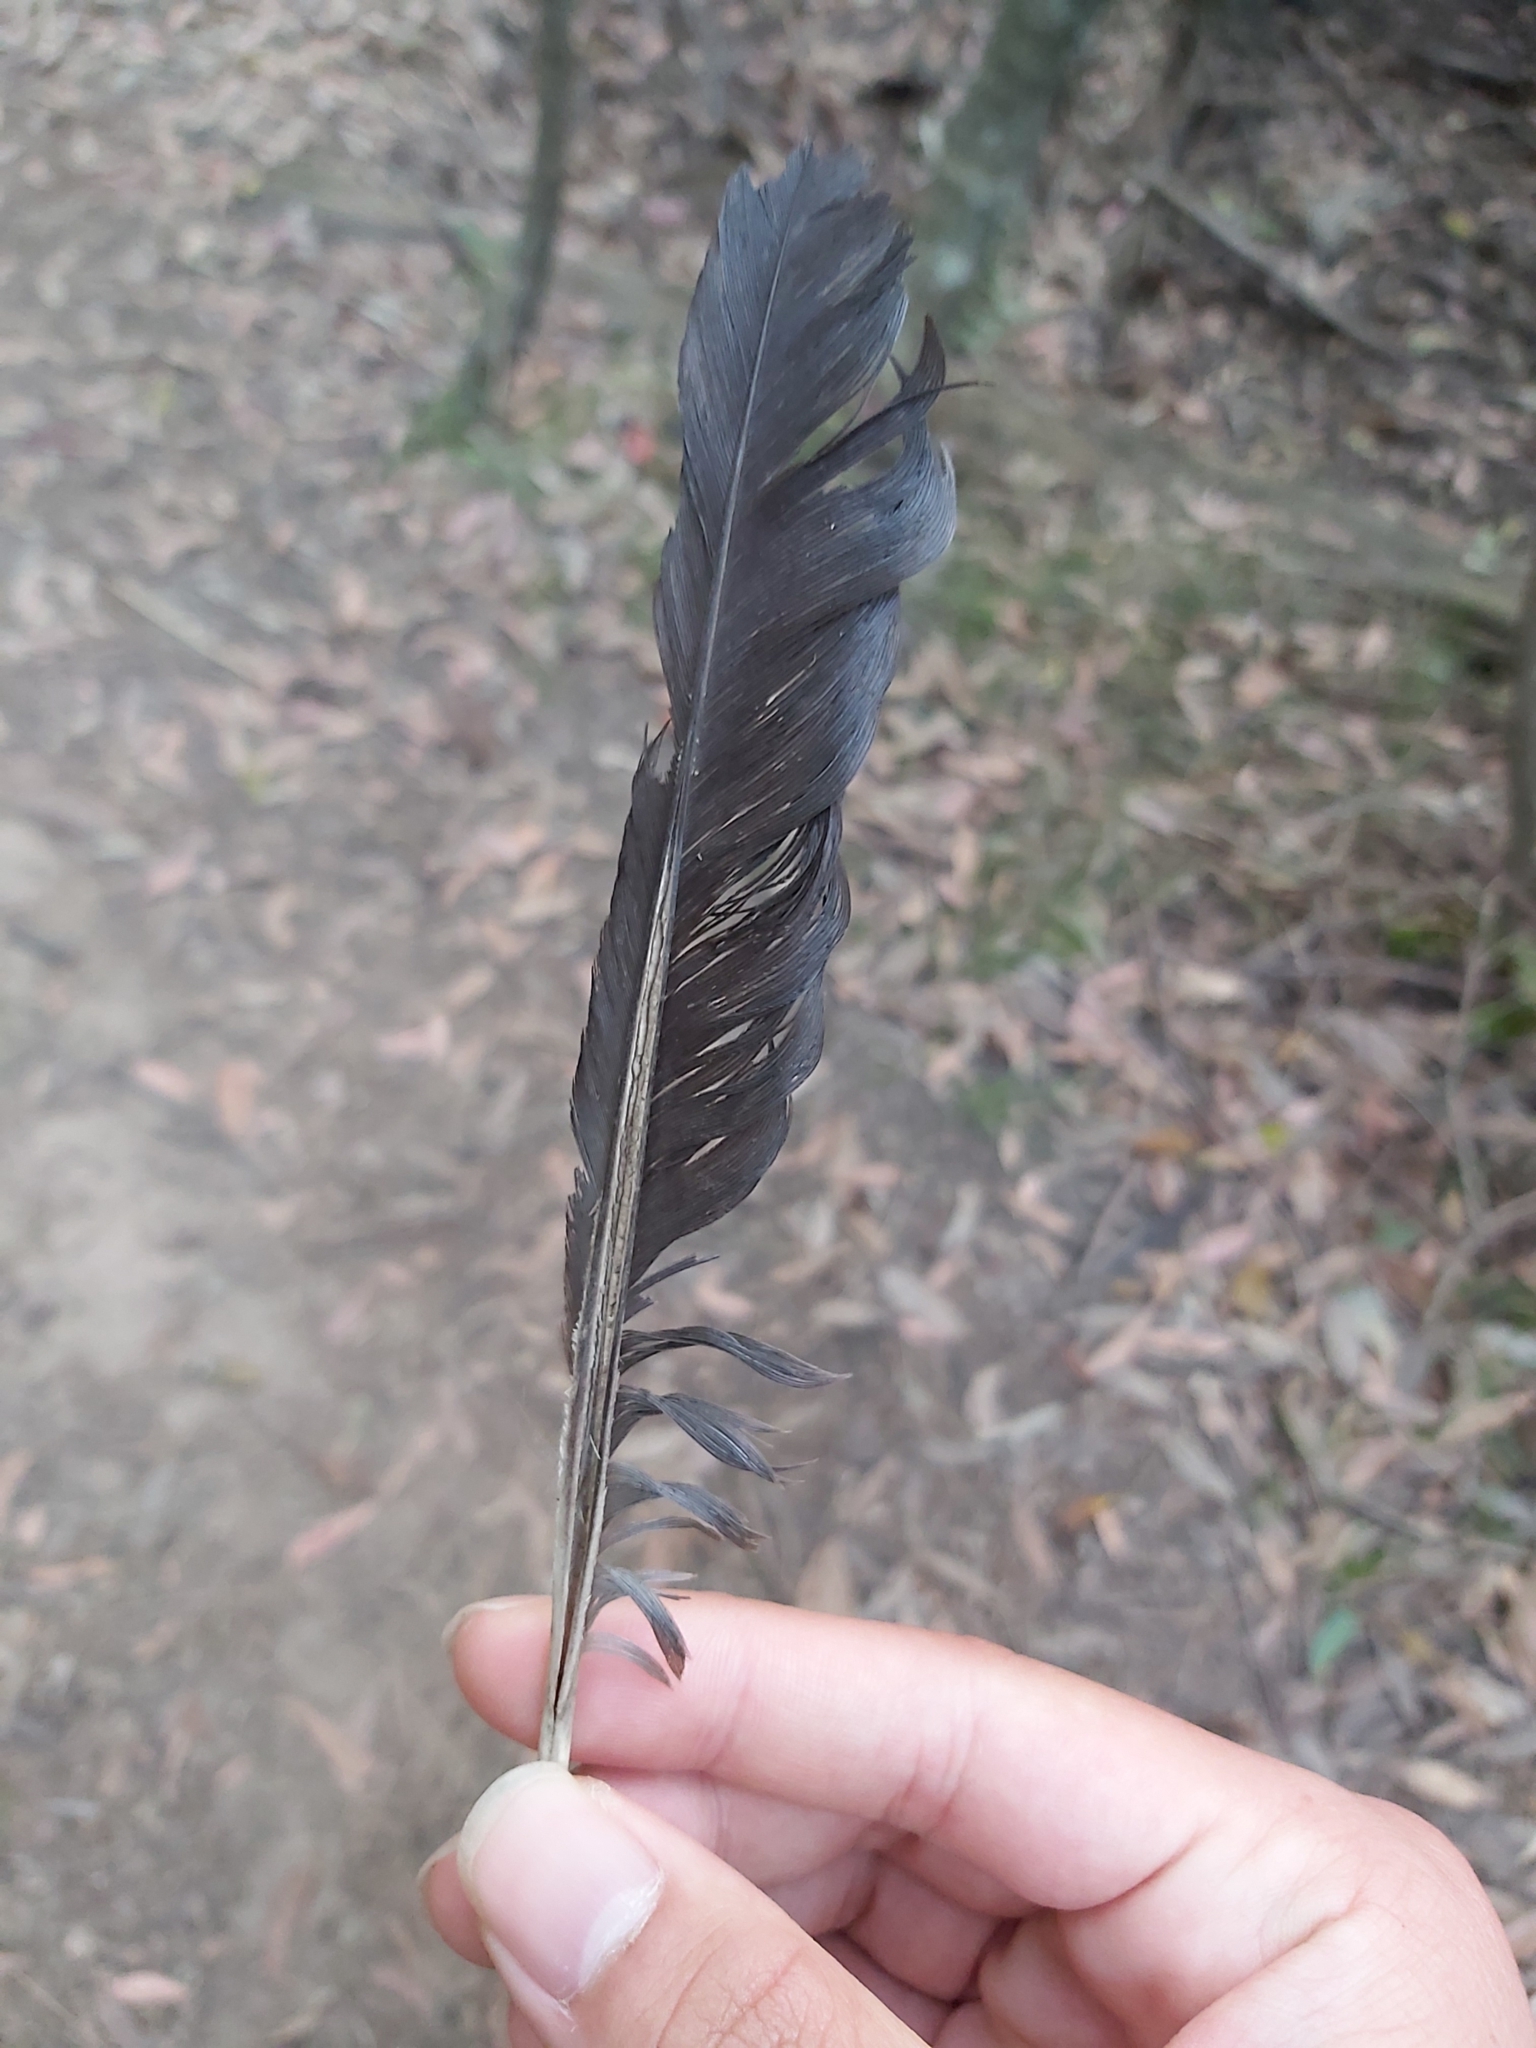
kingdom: Animalia
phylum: Chordata
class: Aves
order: Passeriformes
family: Cracticidae
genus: Gymnorhina
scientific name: Gymnorhina tibicen
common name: Australian magpie
